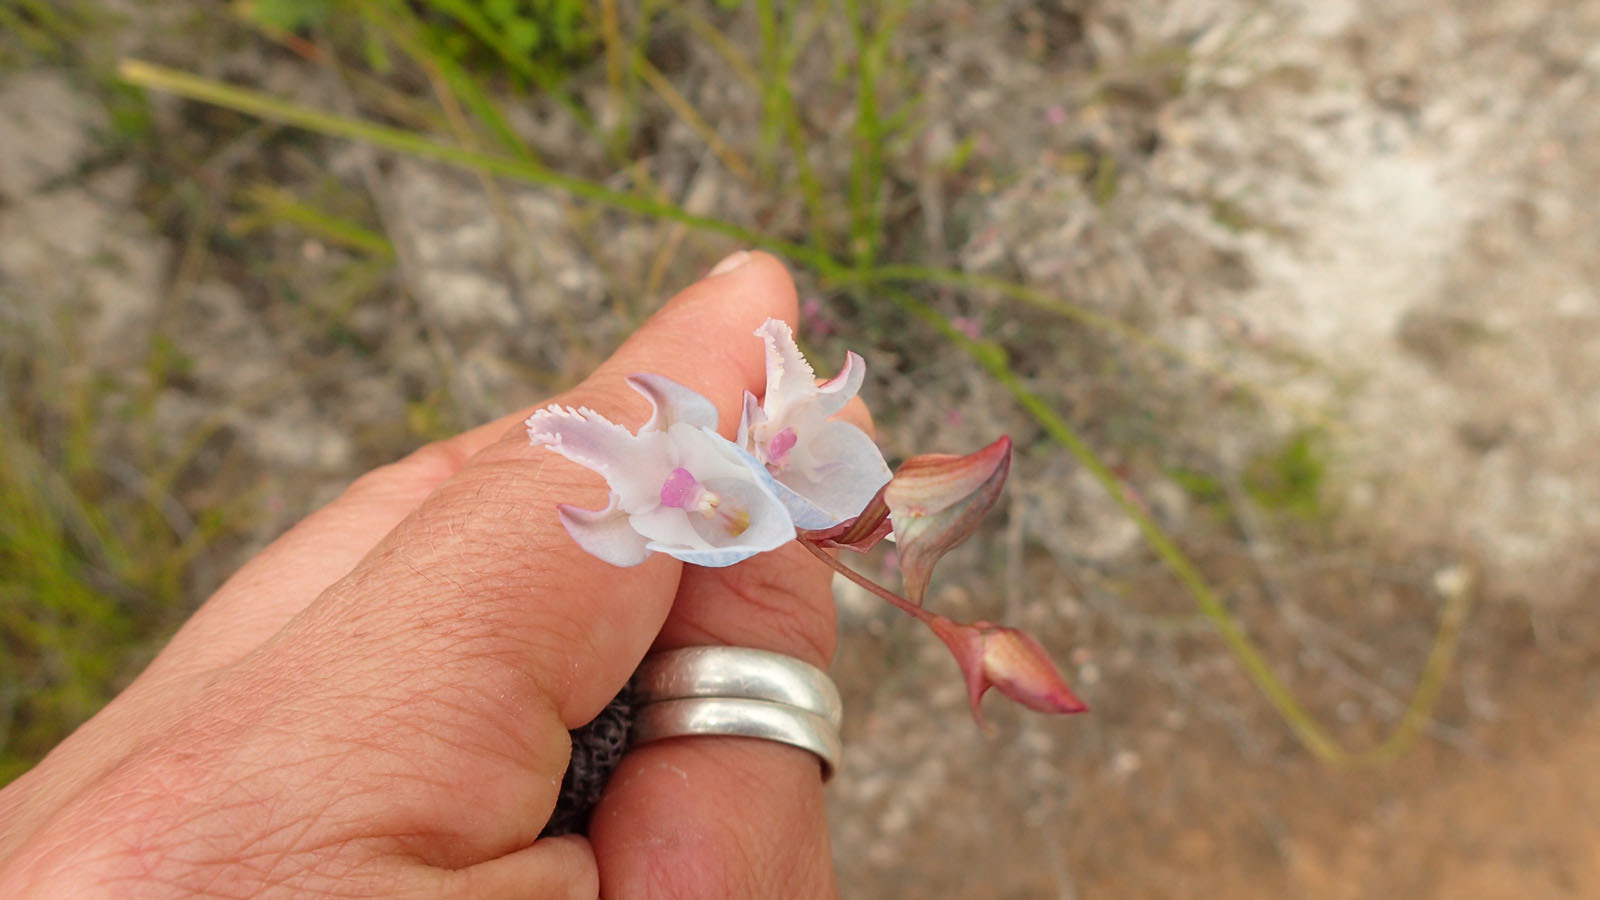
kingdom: Plantae
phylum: Tracheophyta
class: Liliopsida
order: Asparagales
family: Orchidaceae
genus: Disa
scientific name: Disa hians
